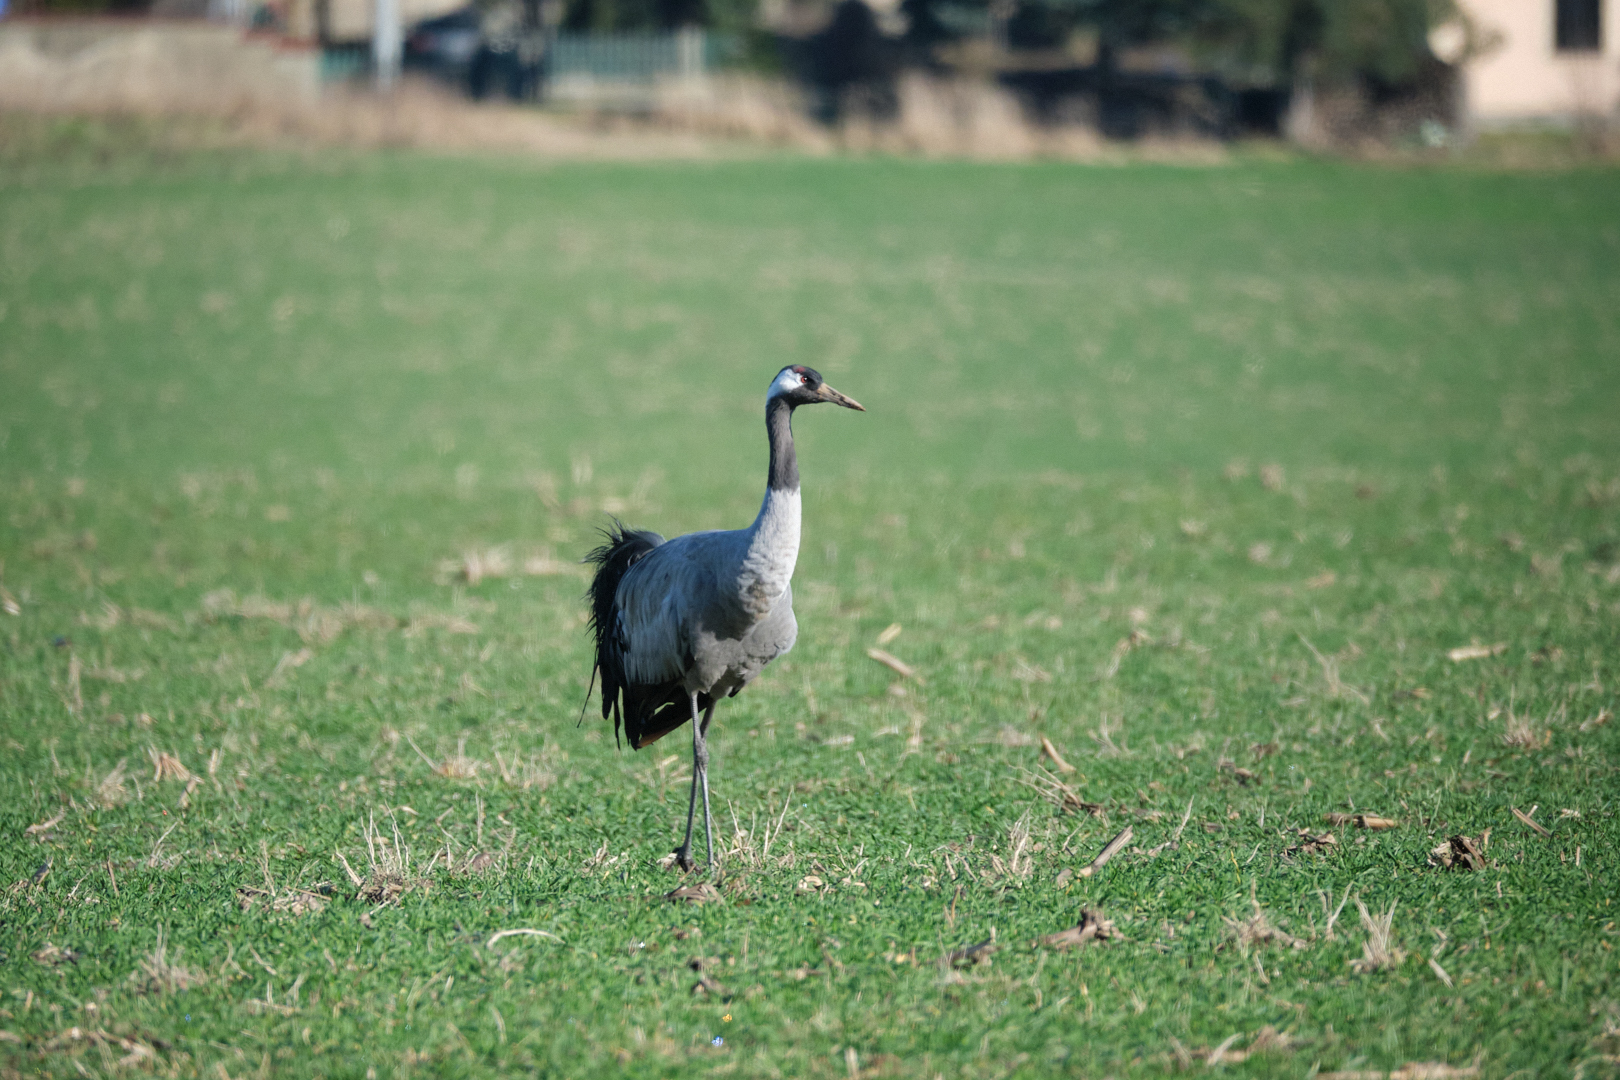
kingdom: Animalia
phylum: Chordata
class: Aves
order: Gruiformes
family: Gruidae
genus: Grus
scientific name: Grus grus
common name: Common crane
